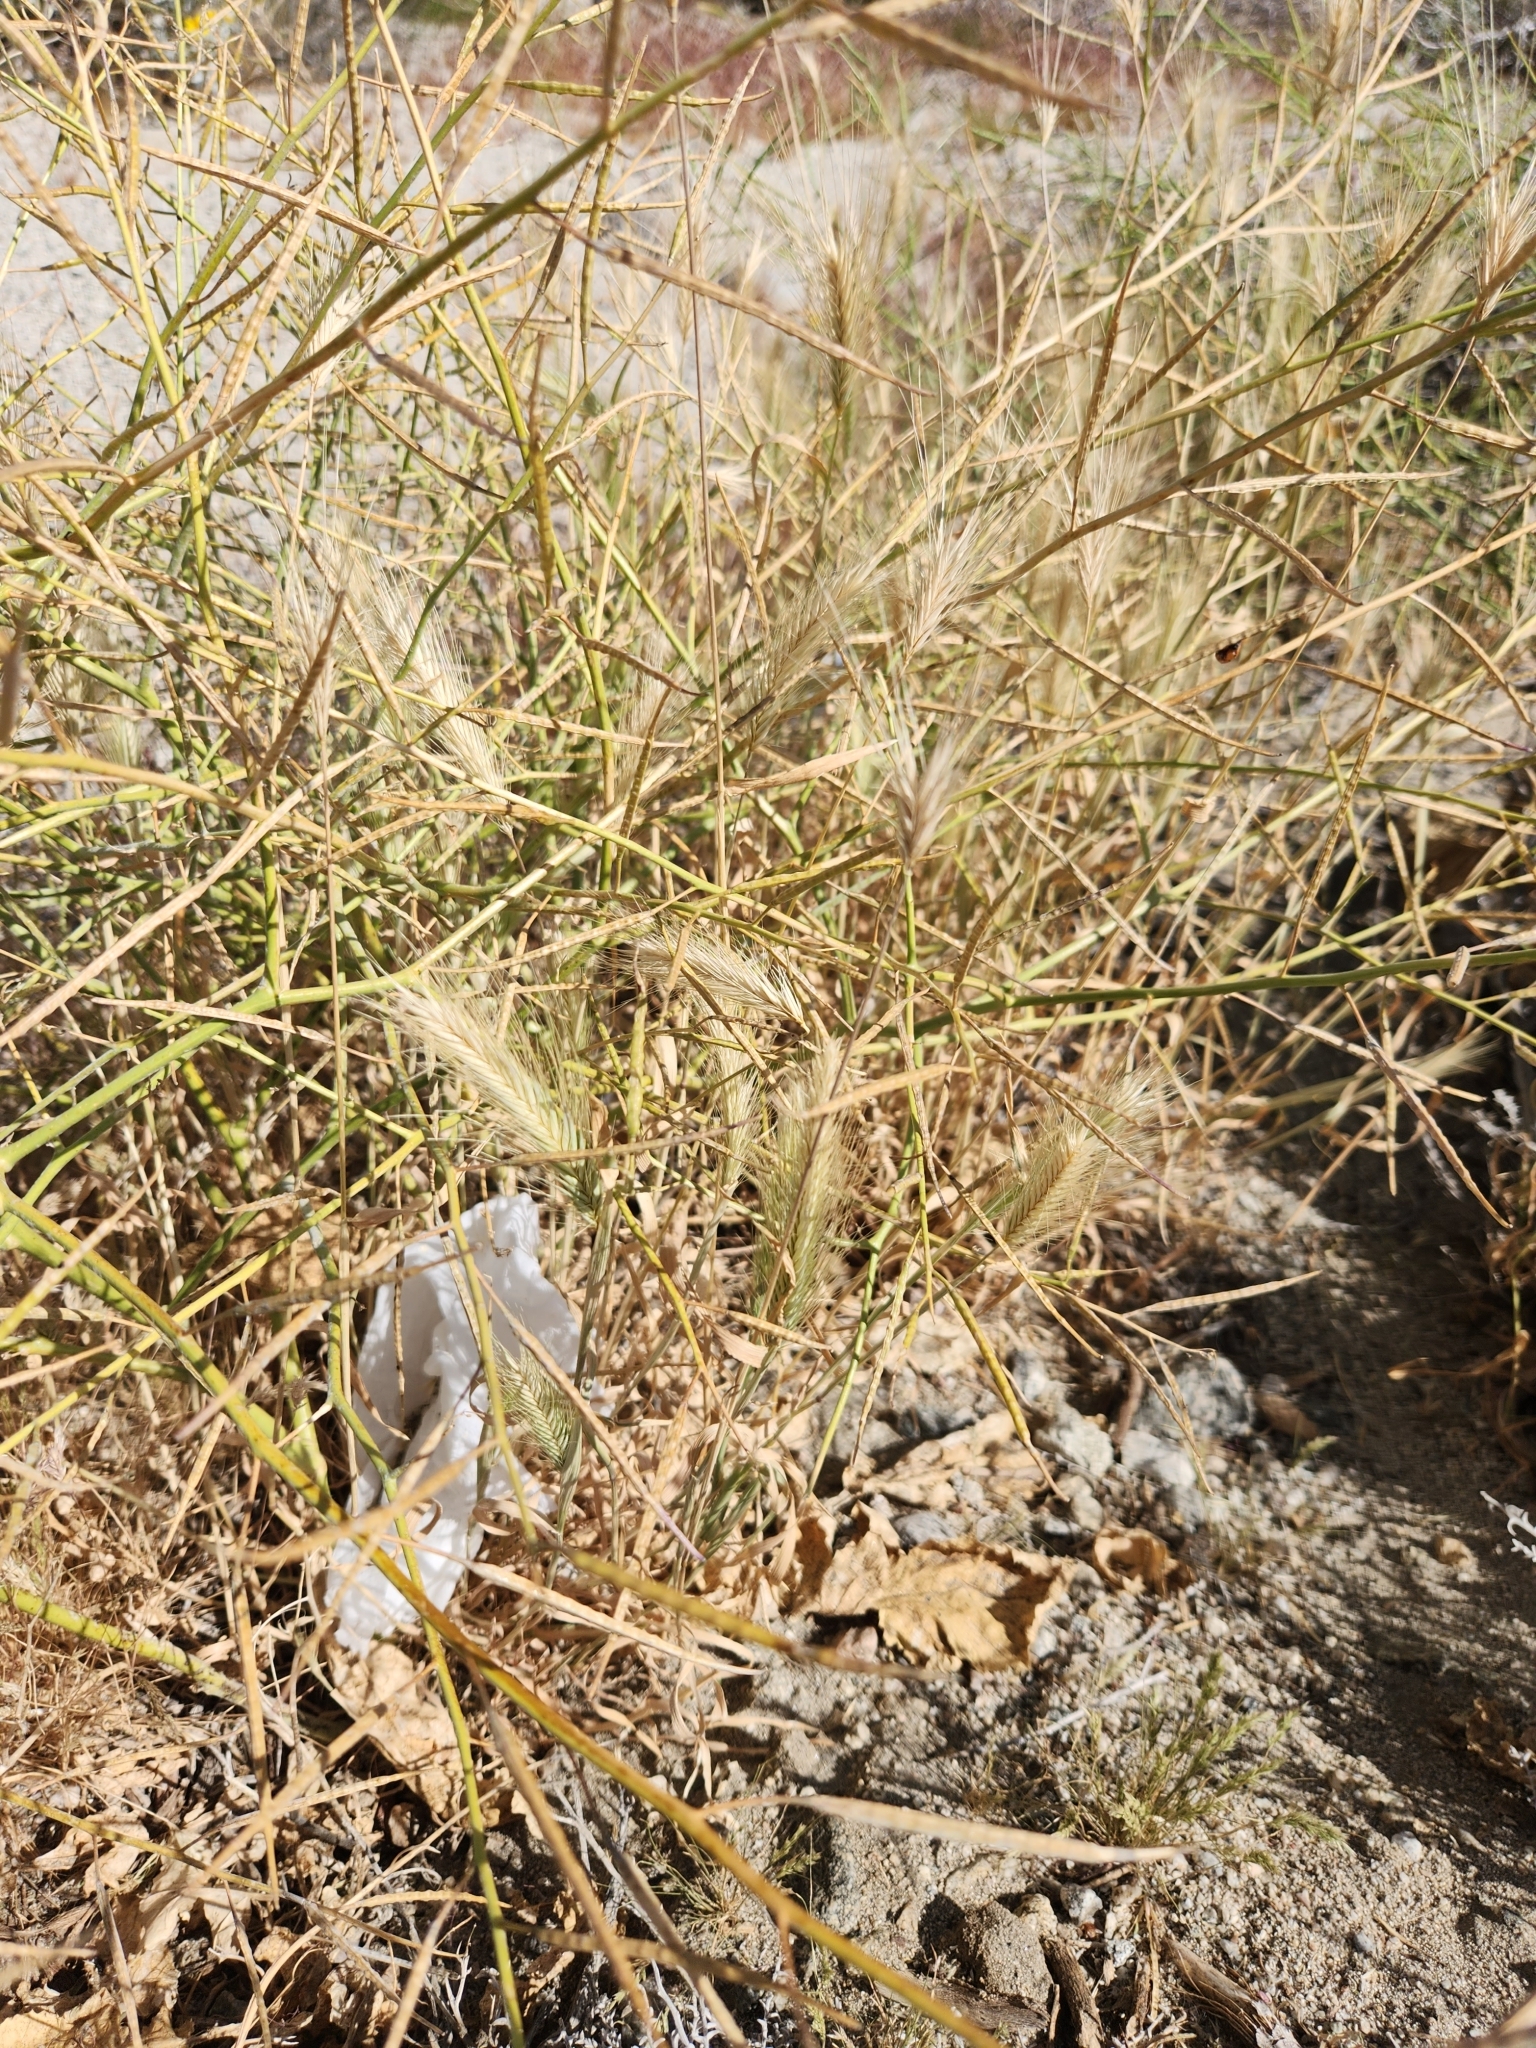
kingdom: Plantae
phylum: Tracheophyta
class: Liliopsida
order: Poales
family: Poaceae
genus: Hordeum
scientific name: Hordeum murinum
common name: Wall barley
